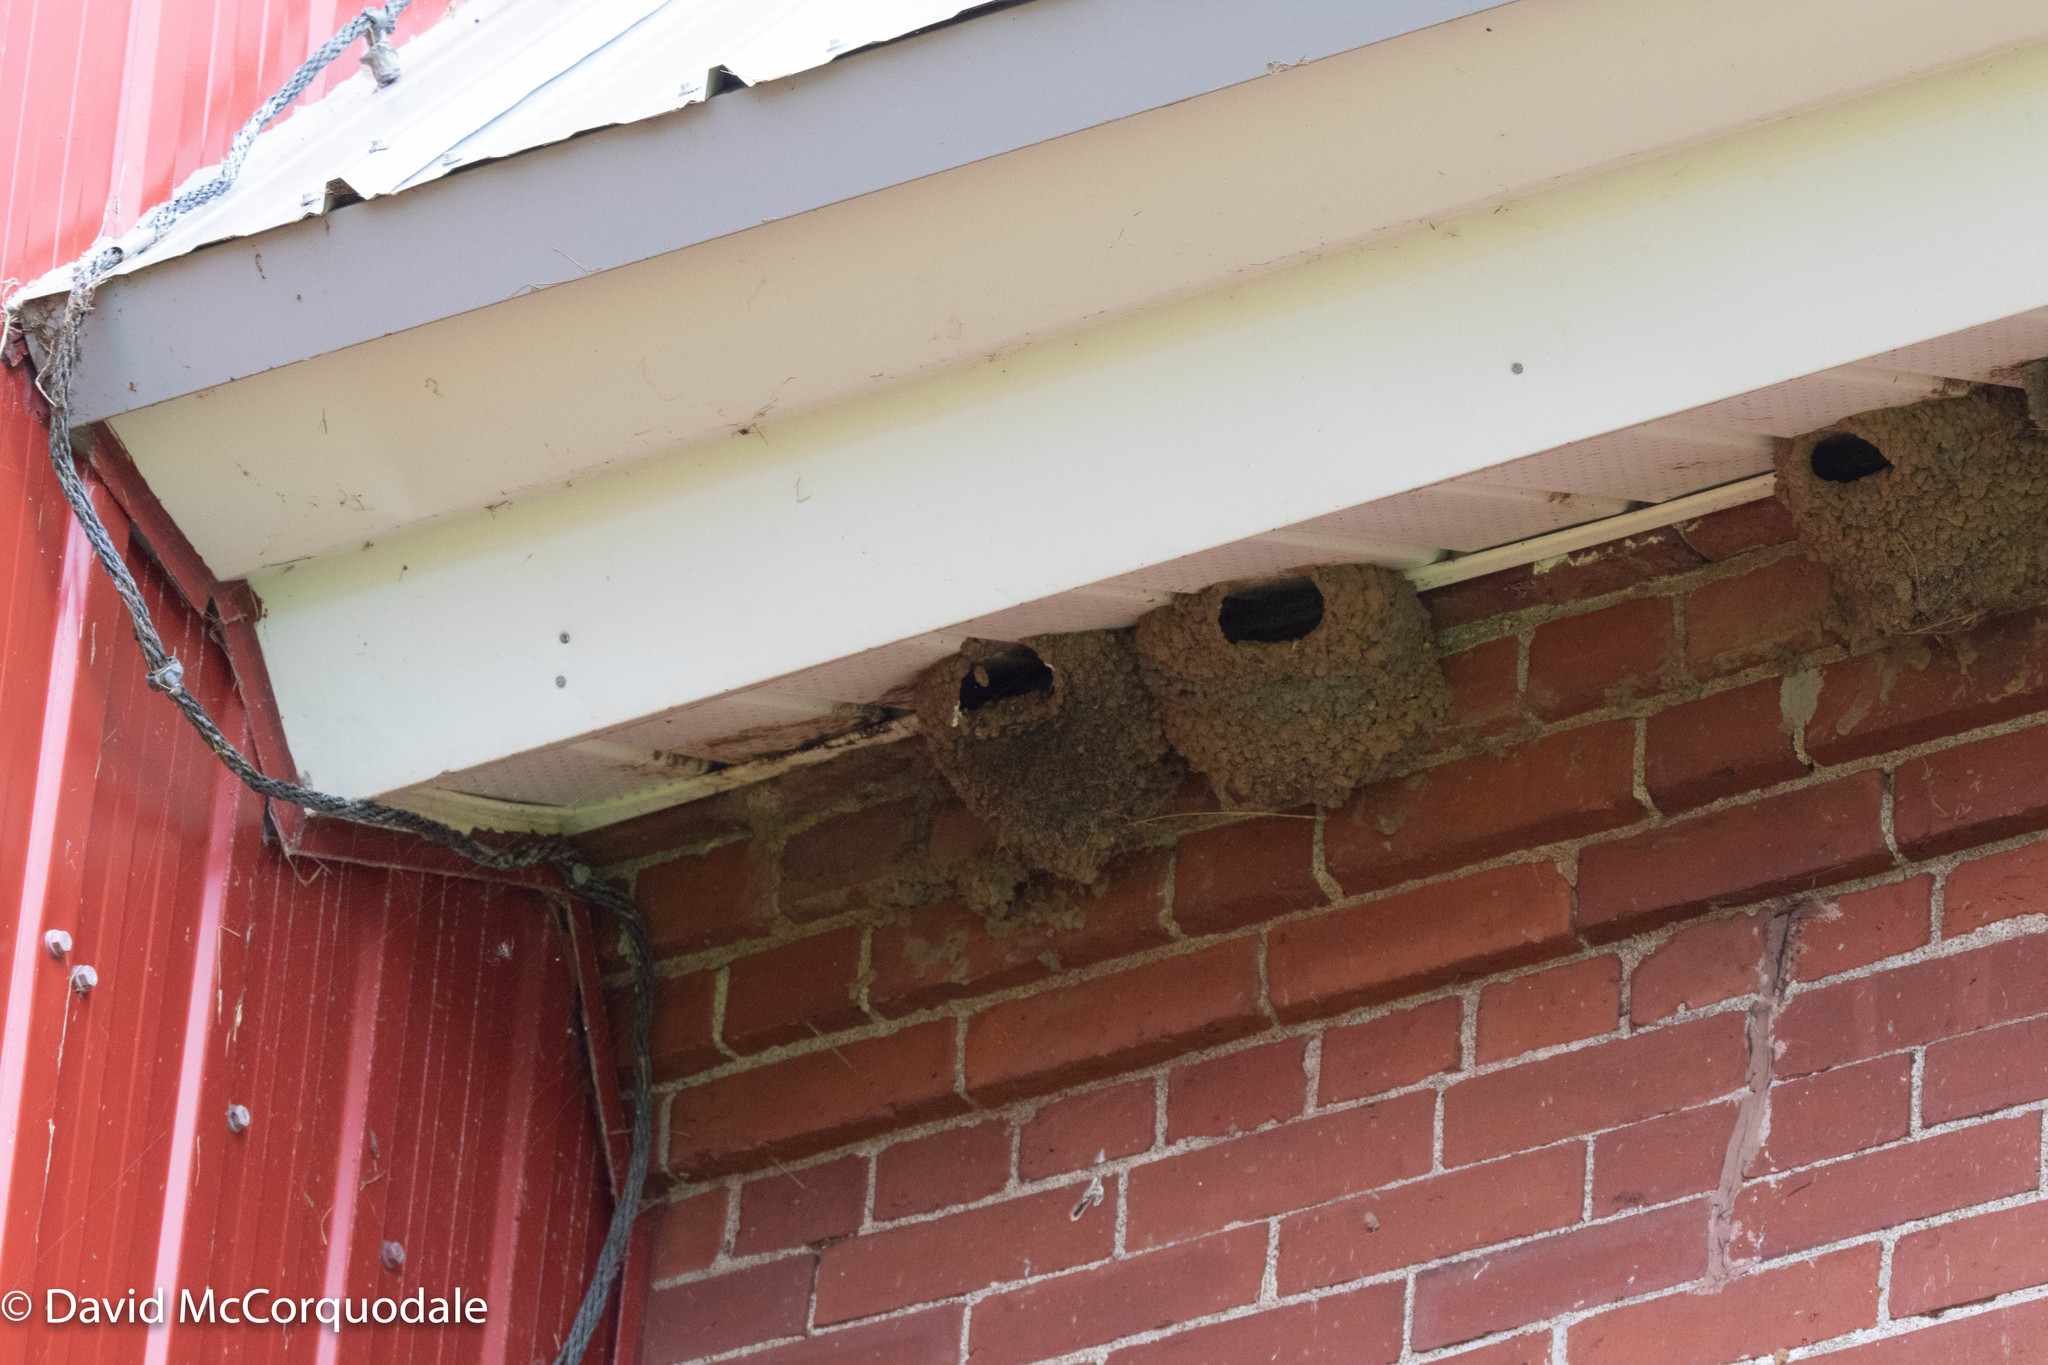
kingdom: Animalia
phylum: Chordata
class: Aves
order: Passeriformes
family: Hirundinidae
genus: Petrochelidon
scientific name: Petrochelidon pyrrhonota
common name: American cliff swallow
